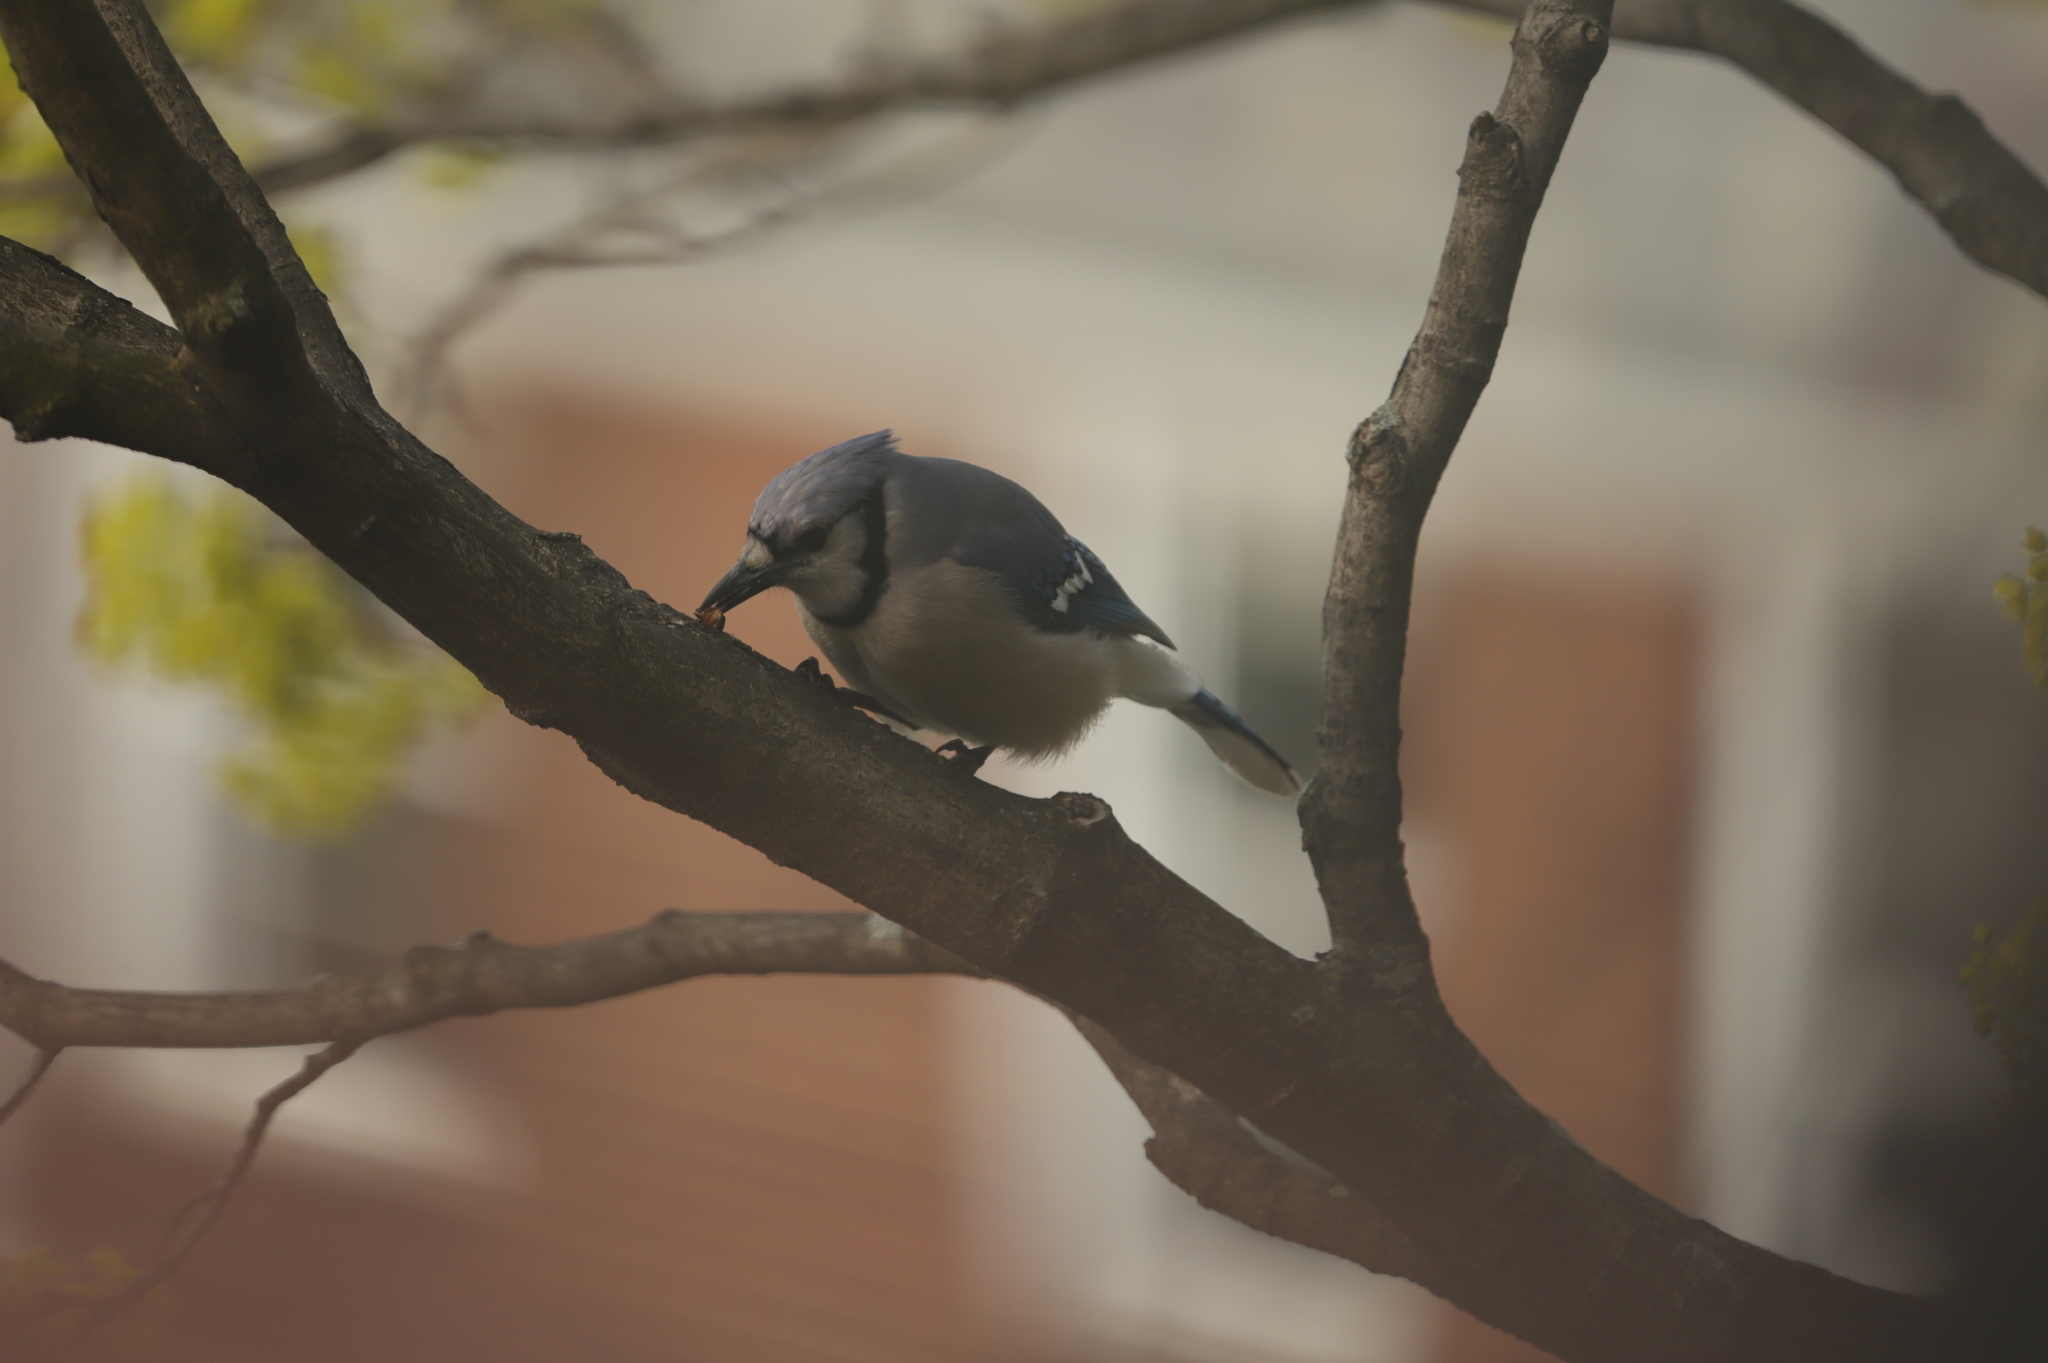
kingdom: Animalia
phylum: Chordata
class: Aves
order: Passeriformes
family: Corvidae
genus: Cyanocitta
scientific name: Cyanocitta cristata
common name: Blue jay
